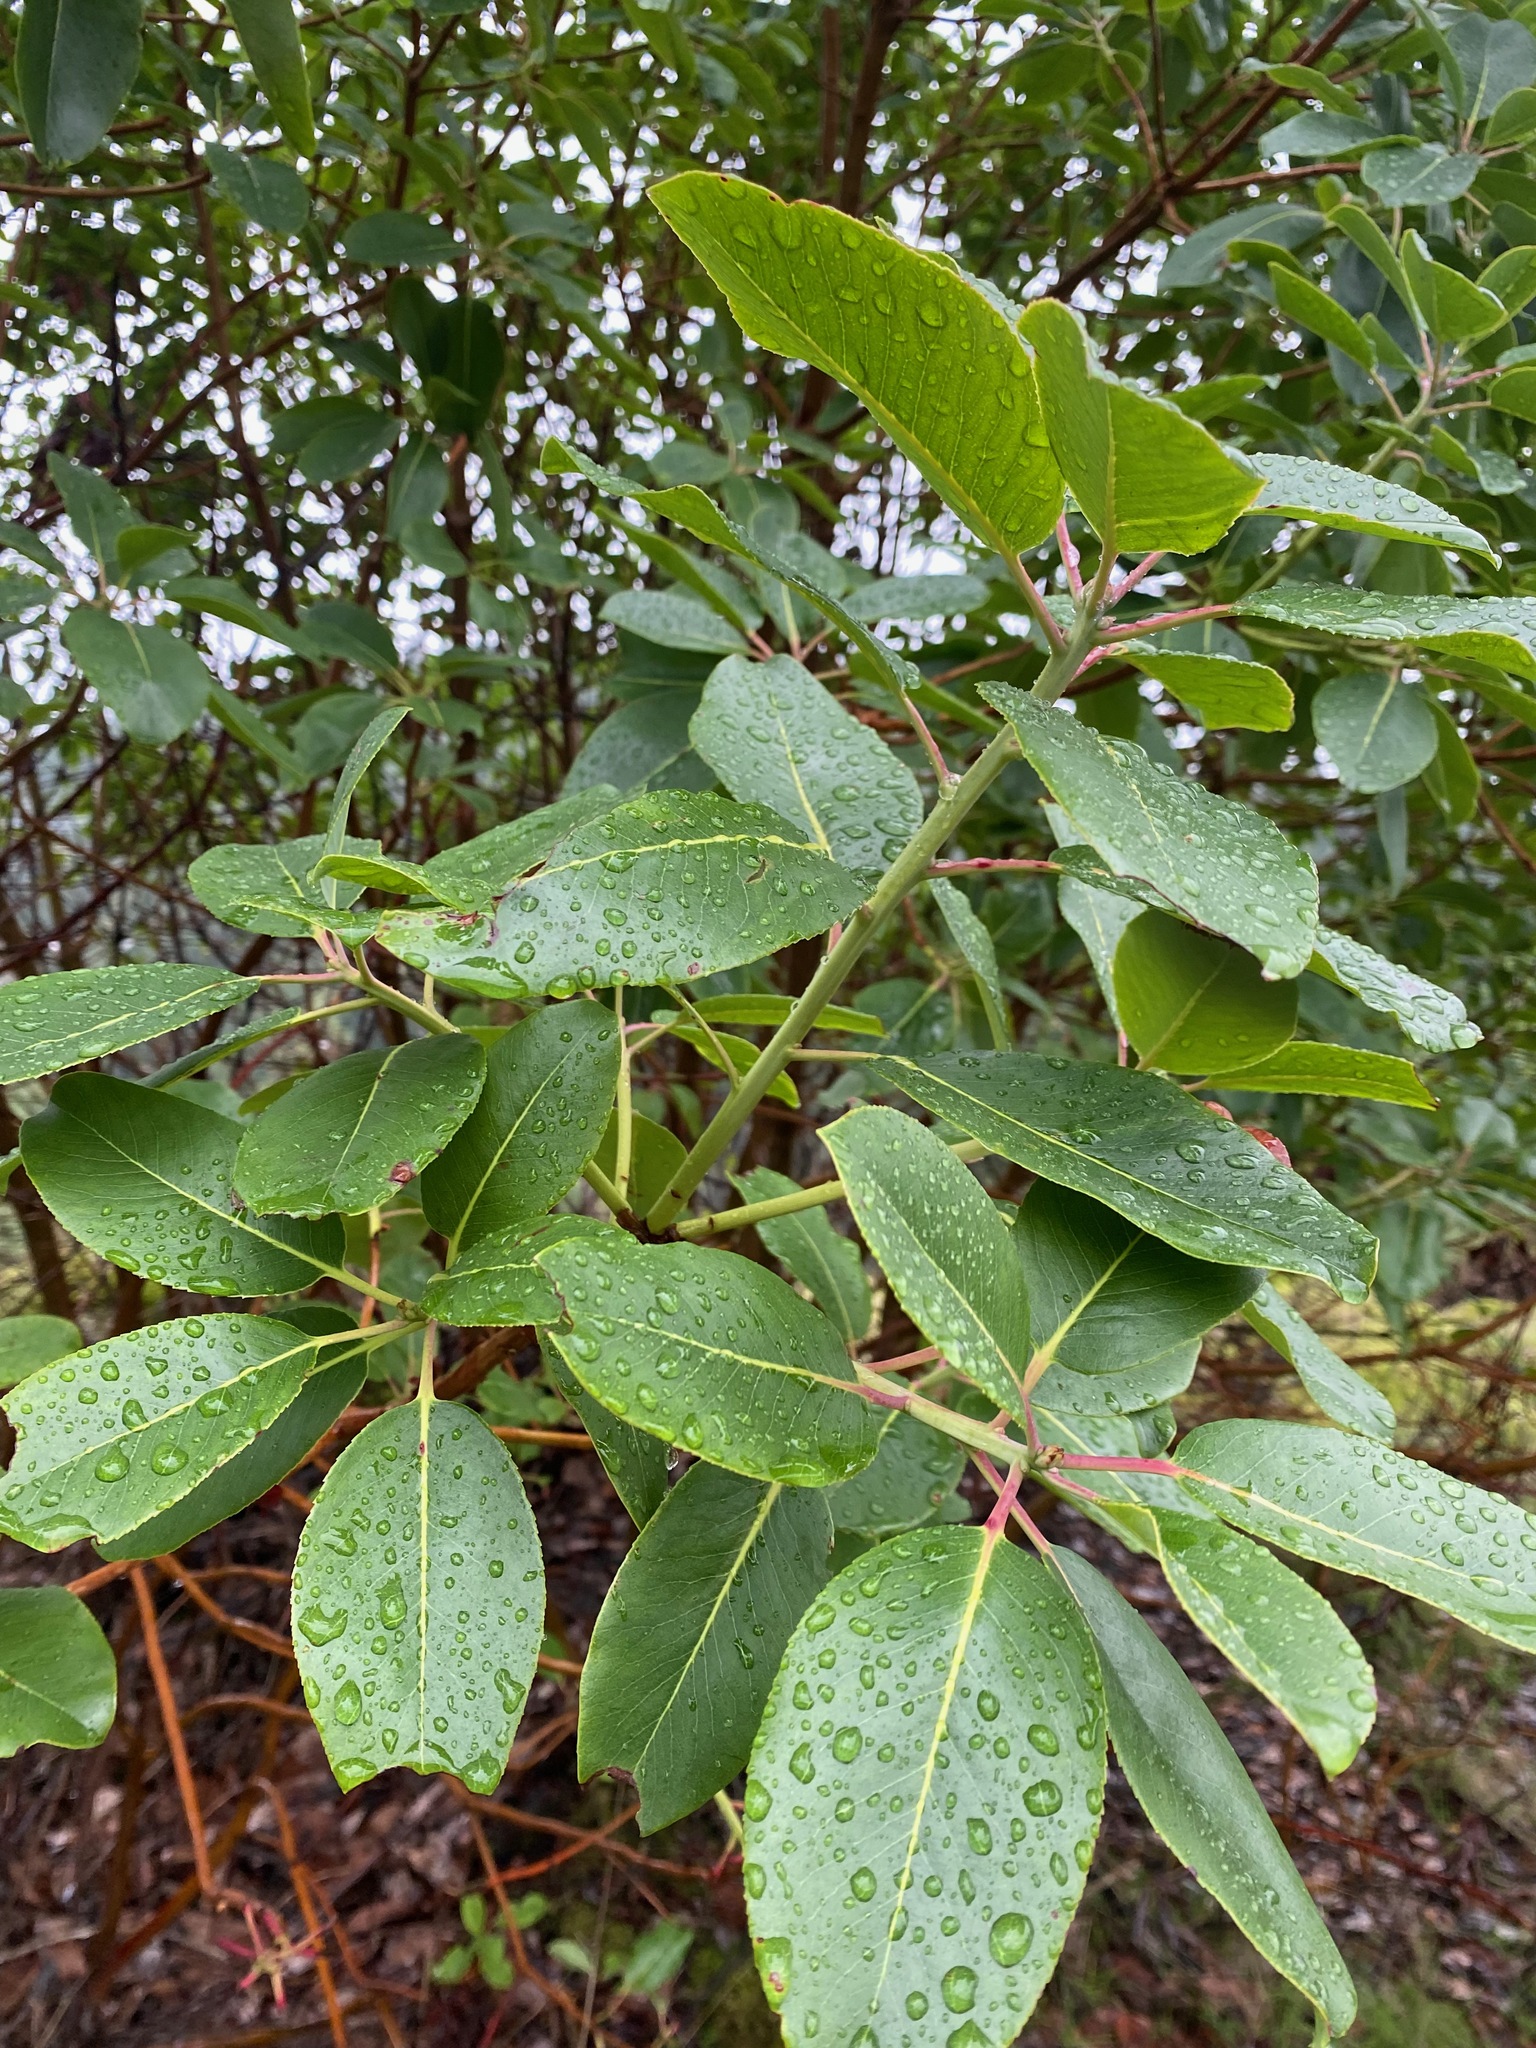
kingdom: Plantae
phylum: Tracheophyta
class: Magnoliopsida
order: Ericales
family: Ericaceae
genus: Arbutus
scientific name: Arbutus menziesii
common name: Pacific madrone
